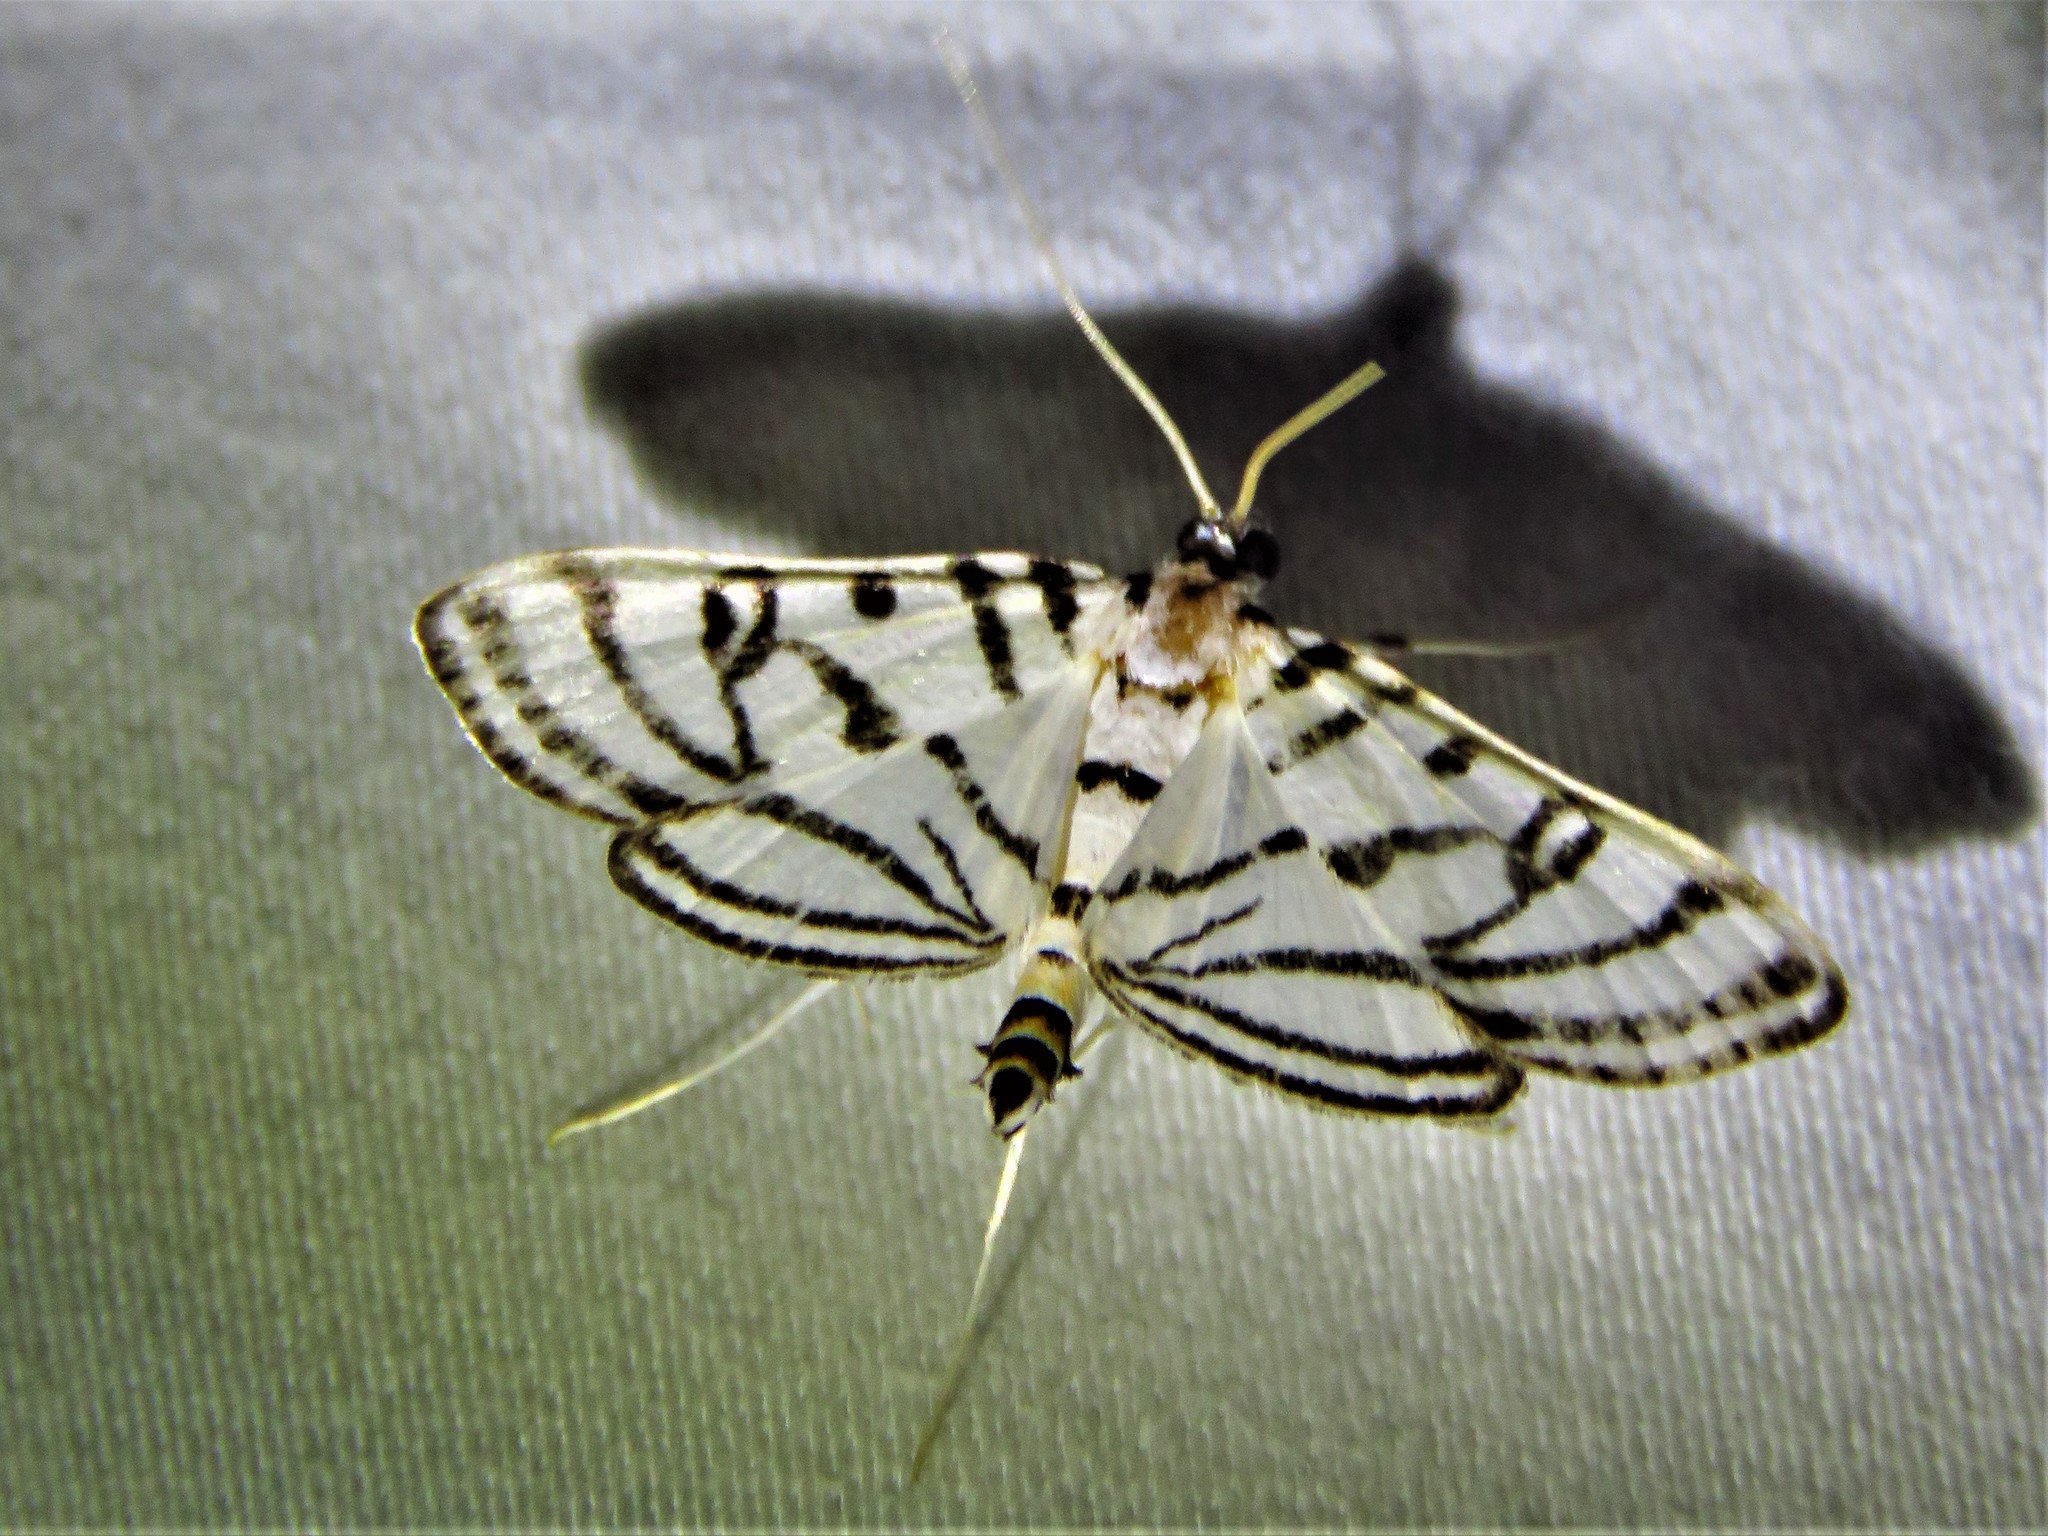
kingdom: Animalia
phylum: Arthropoda
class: Insecta
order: Lepidoptera
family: Crambidae
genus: Conchylodes
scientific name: Conchylodes ovulalis
